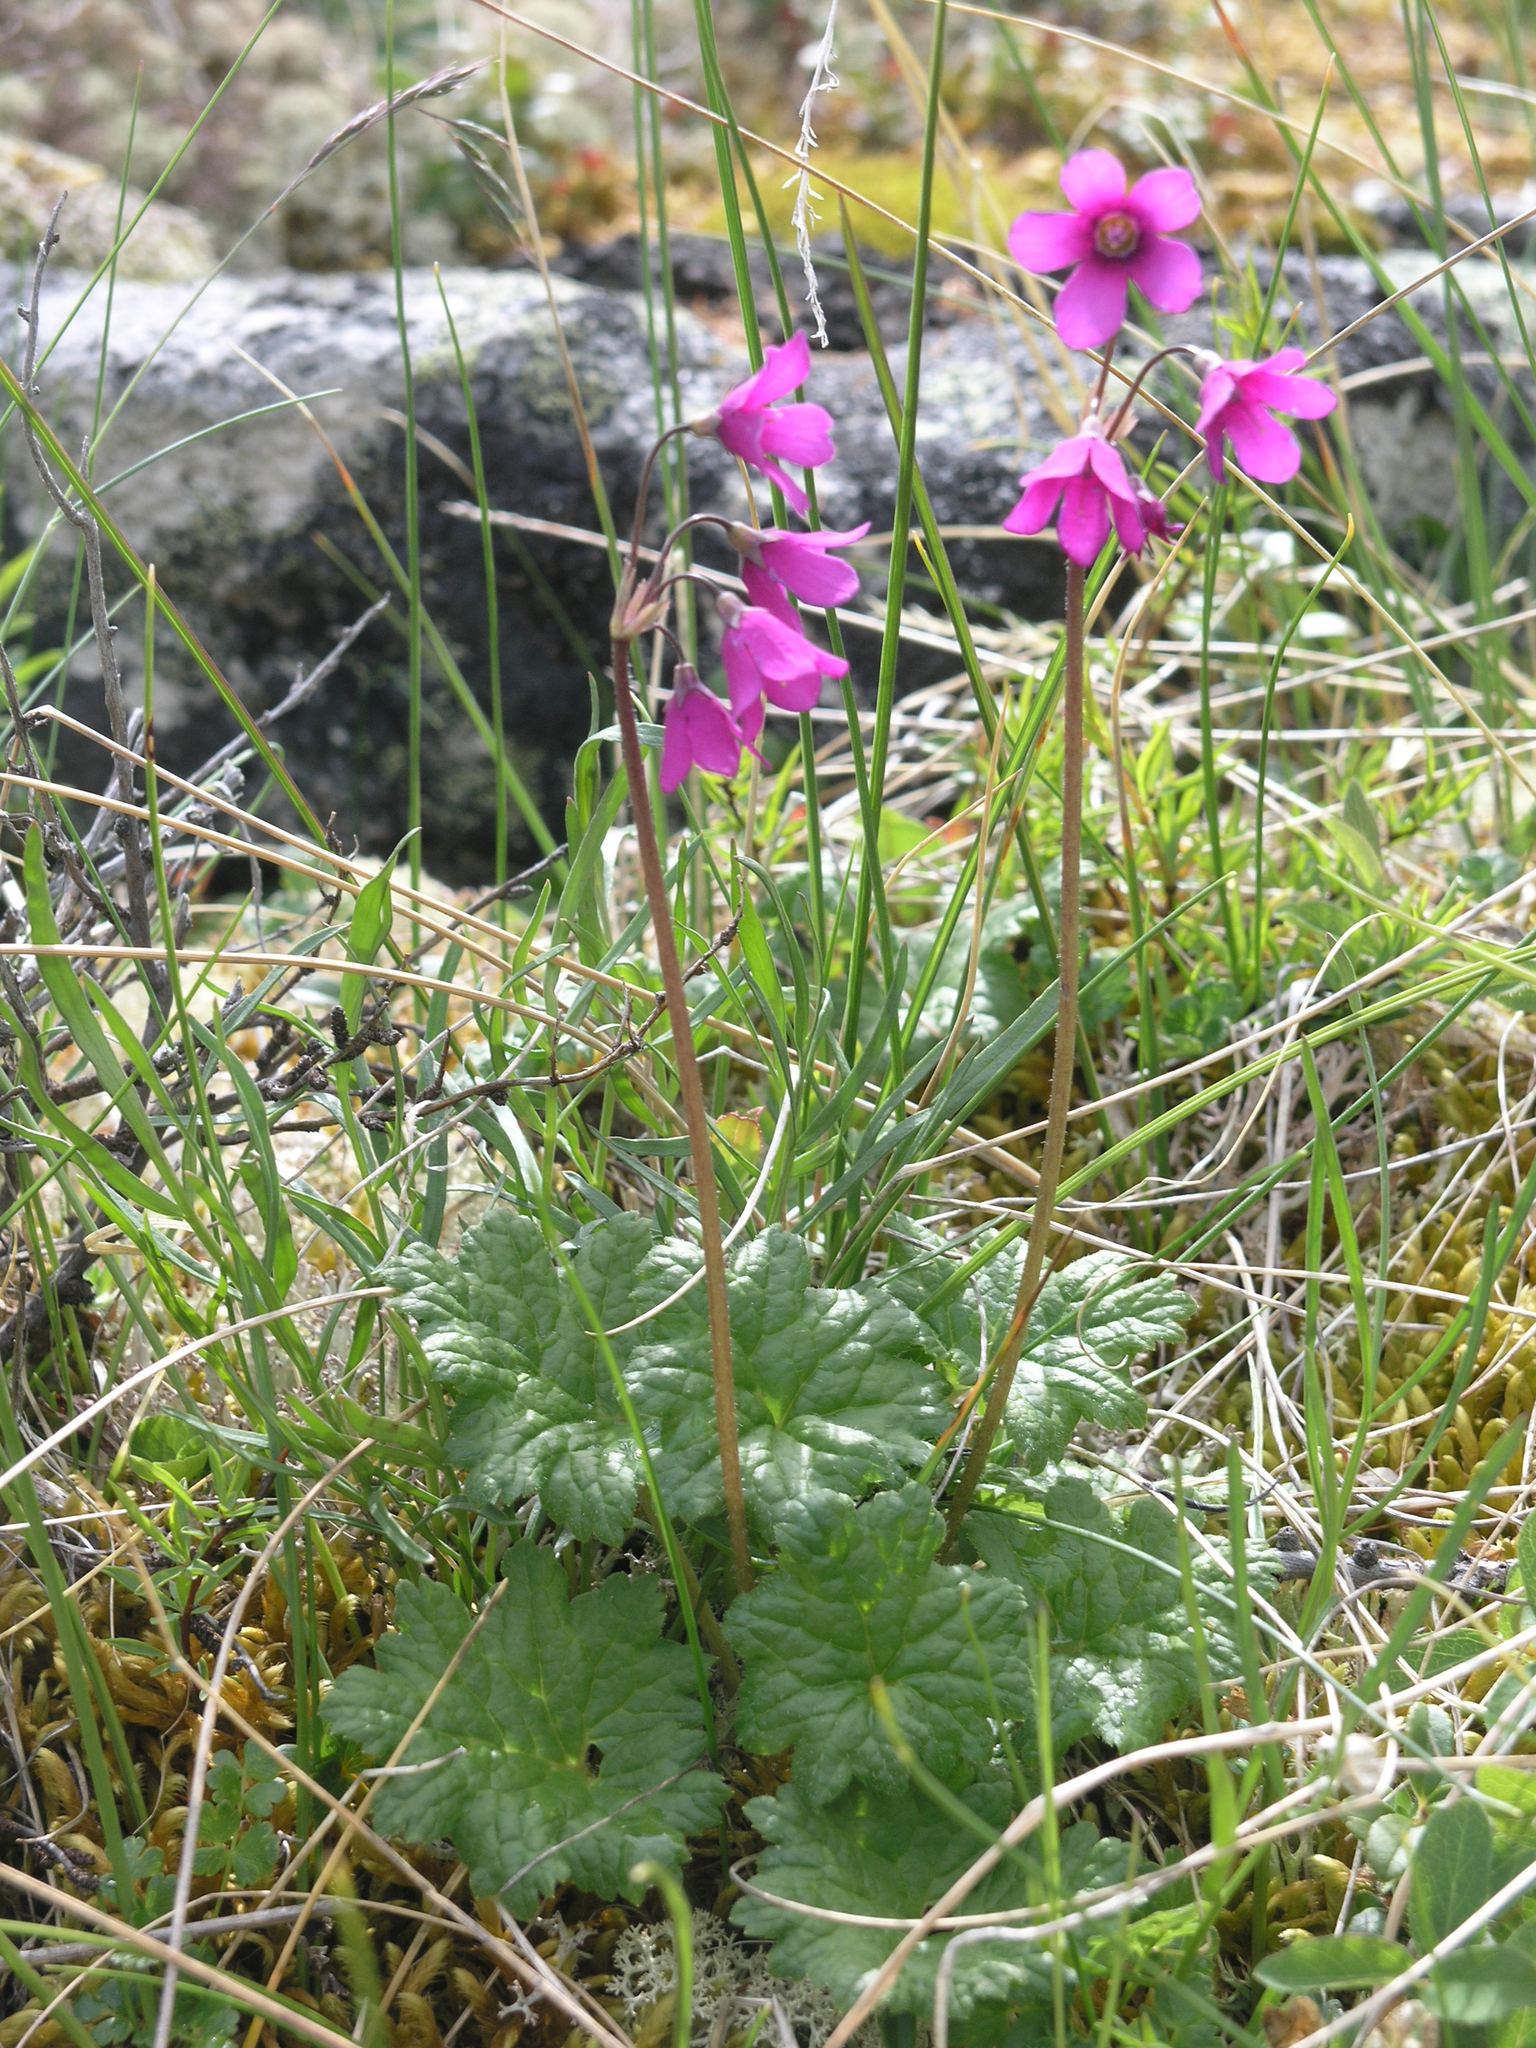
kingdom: Plantae
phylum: Tracheophyta
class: Magnoliopsida
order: Ericales
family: Primulaceae
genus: Primula
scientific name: Primula matthioli
